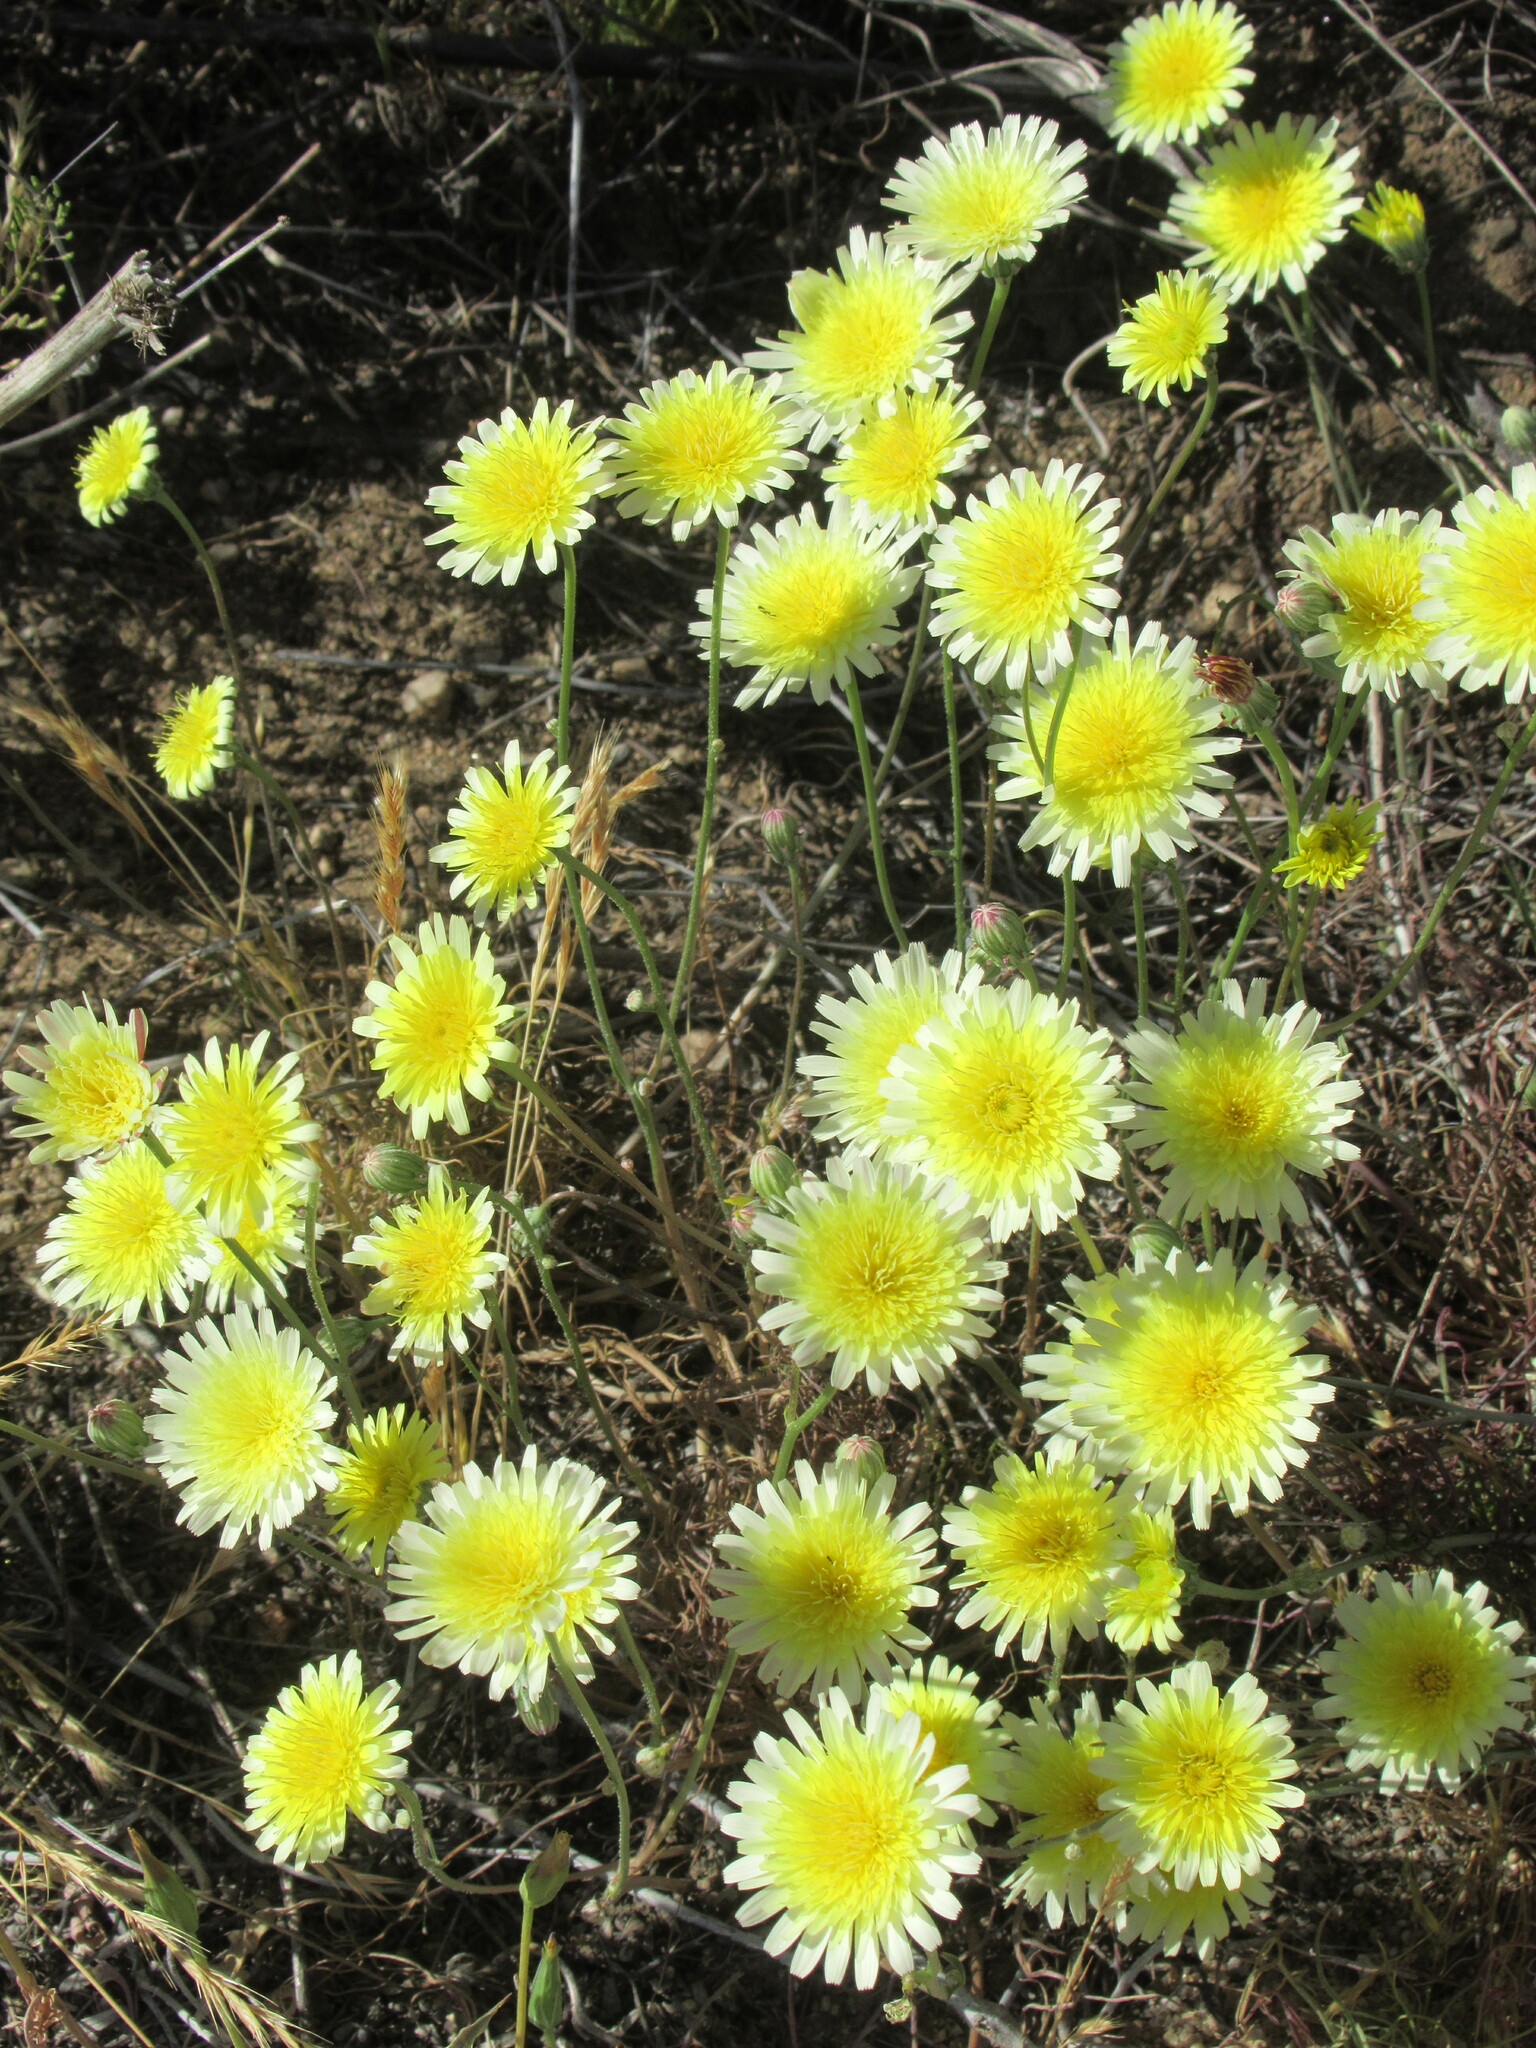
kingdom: Plantae
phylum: Tracheophyta
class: Magnoliopsida
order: Asterales
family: Asteraceae
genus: Malacothrix
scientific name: Malacothrix glabrata
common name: Smooth desert-dandelion
